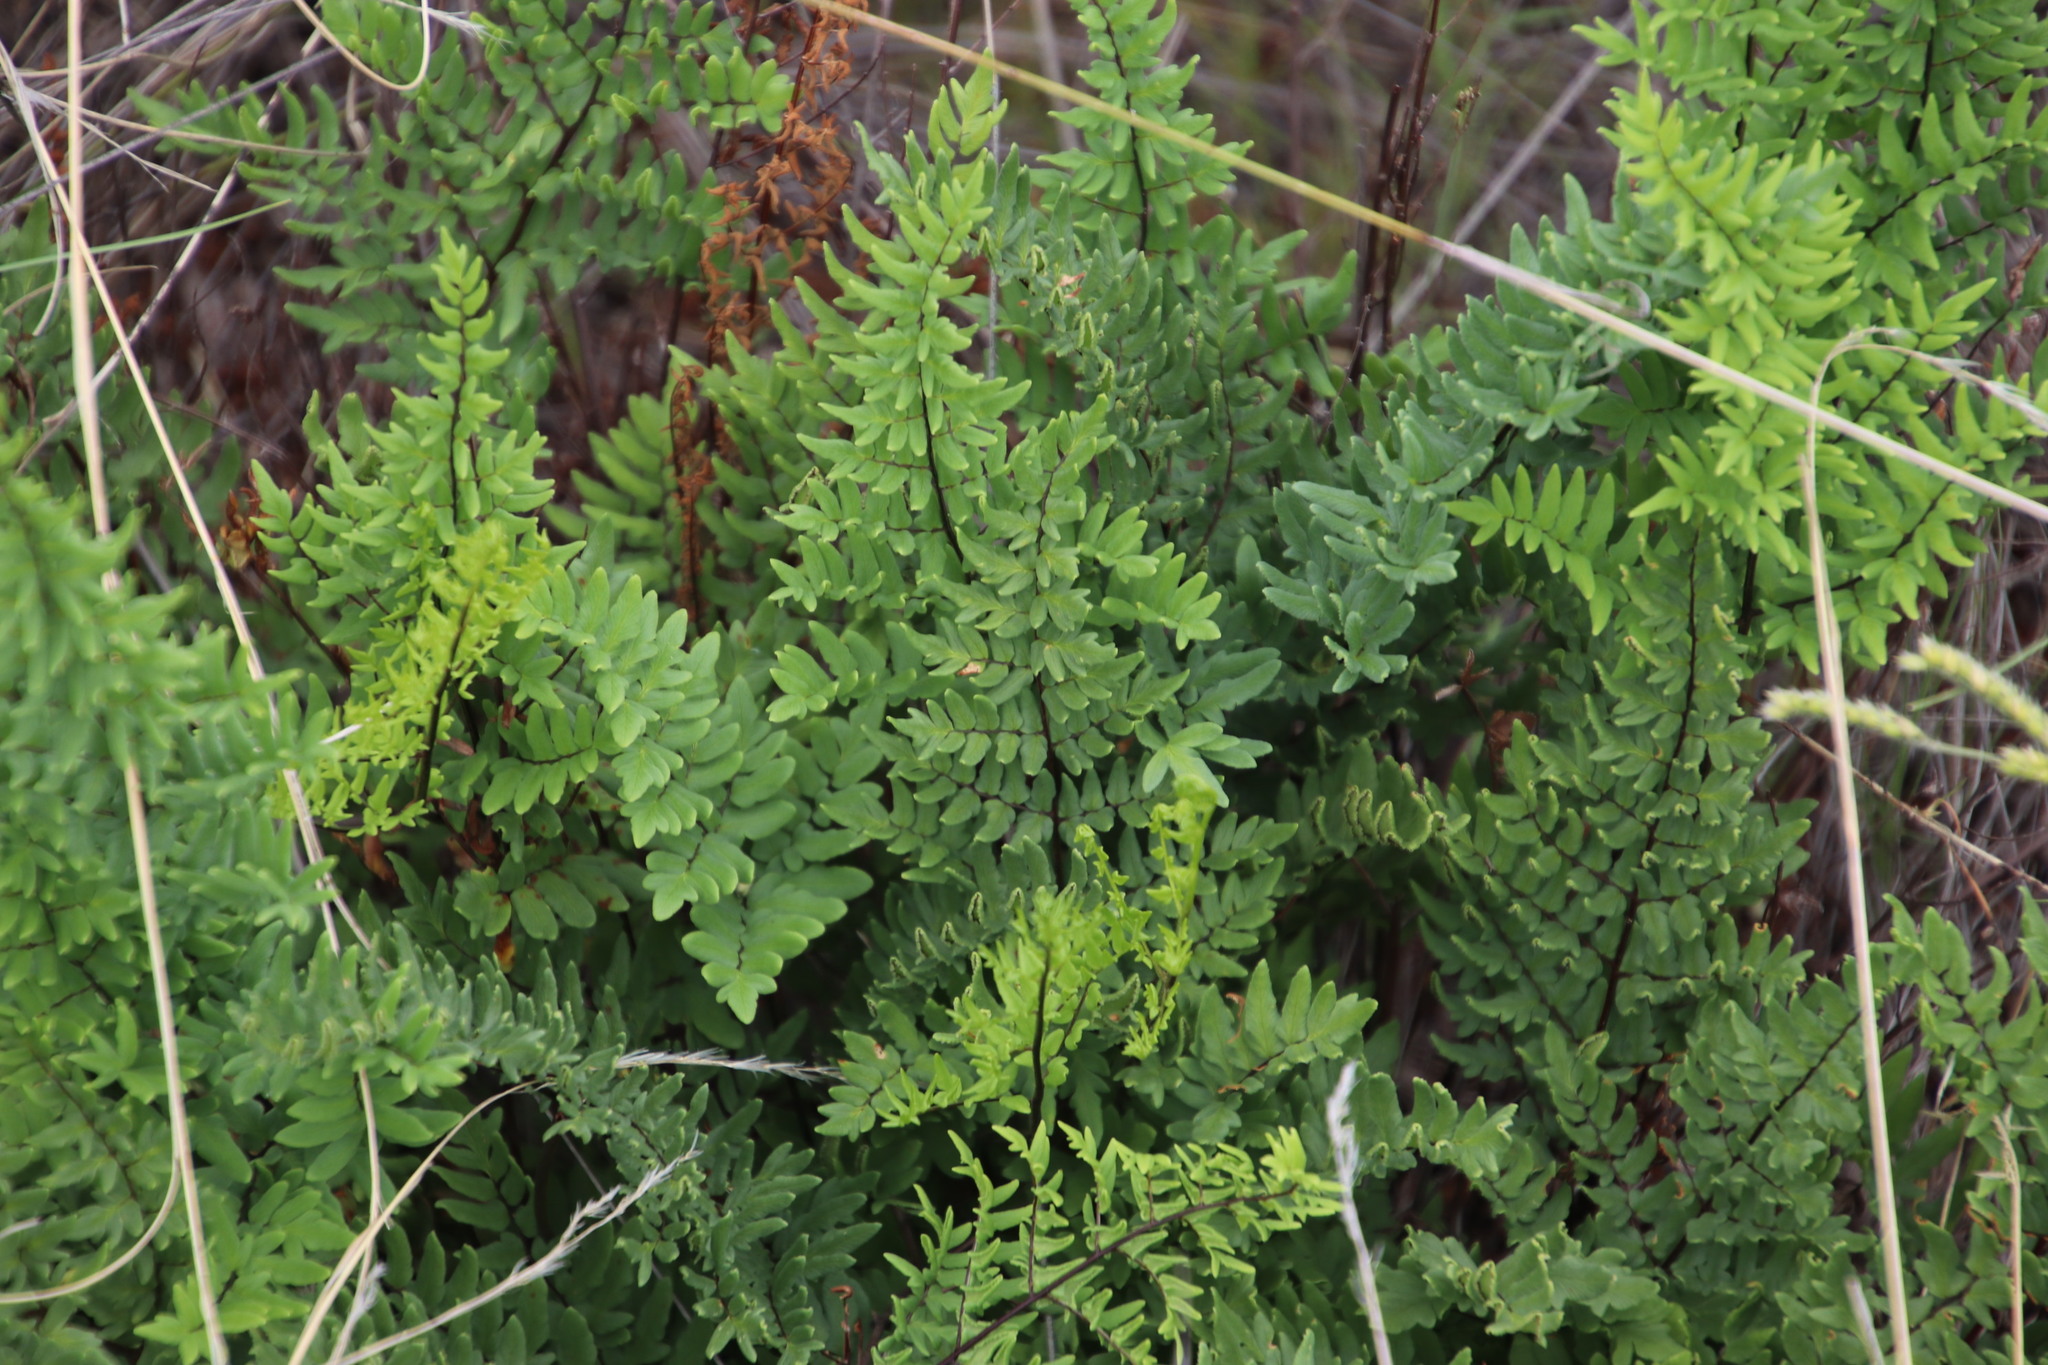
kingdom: Plantae
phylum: Tracheophyta
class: Polypodiopsida
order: Polypodiales
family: Pteridaceae
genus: Cheilanthes
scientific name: Cheilanthes viridis
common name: Green cliffbrake
